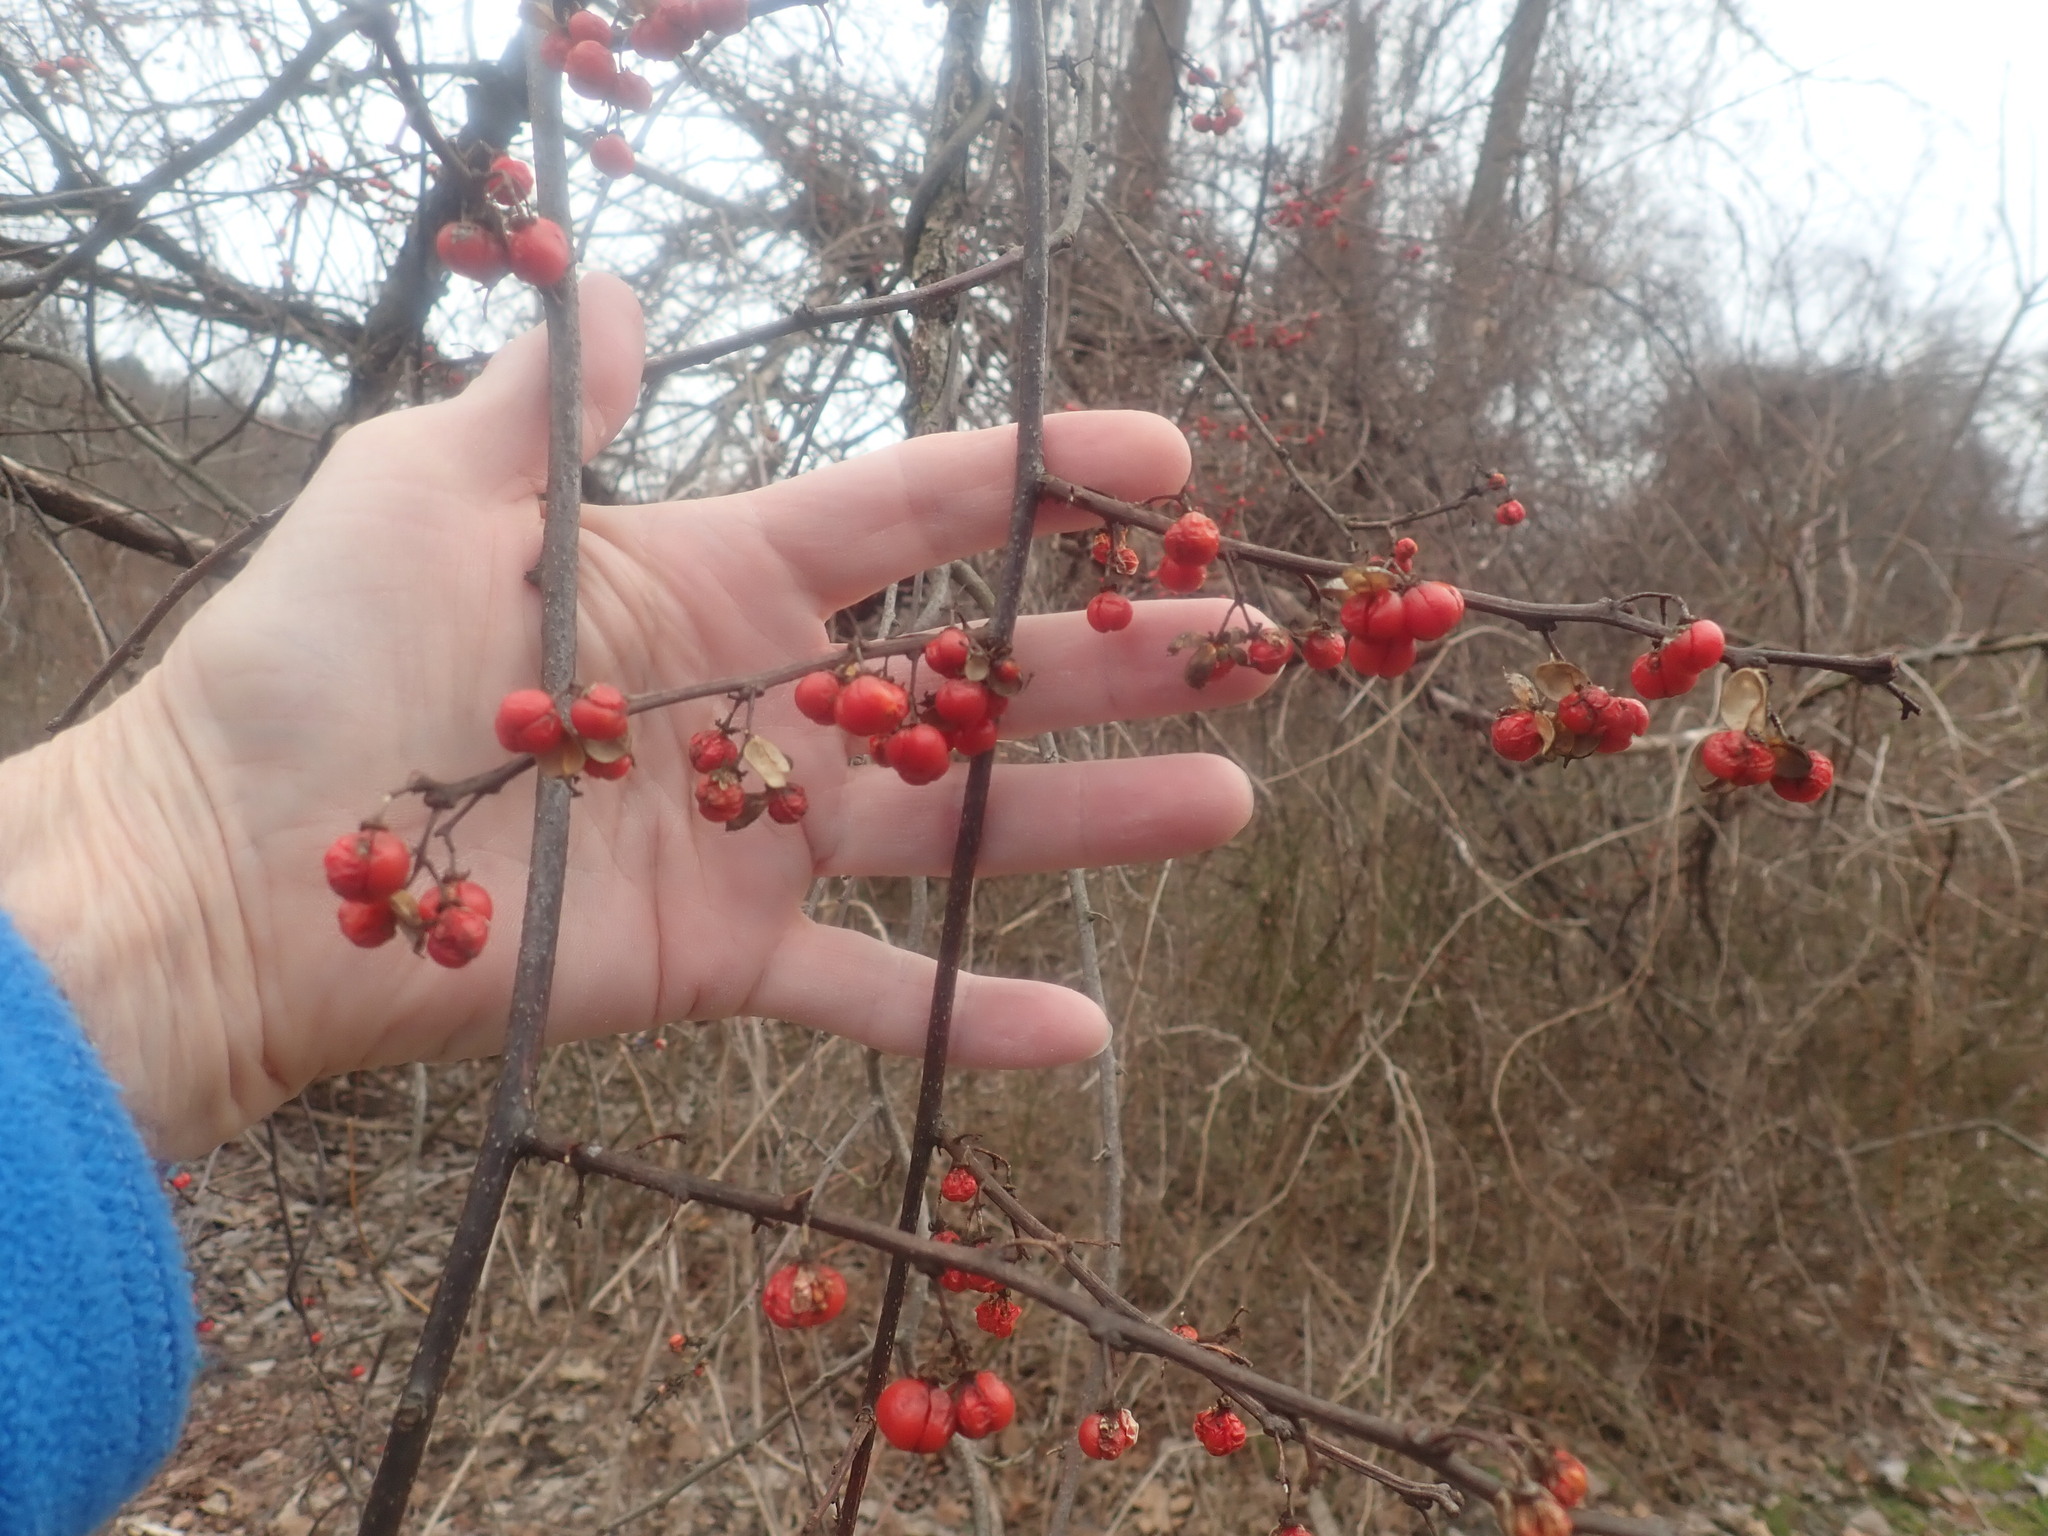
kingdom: Plantae
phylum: Tracheophyta
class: Magnoliopsida
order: Celastrales
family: Celastraceae
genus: Celastrus
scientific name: Celastrus orbiculatus
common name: Oriental bittersweet
